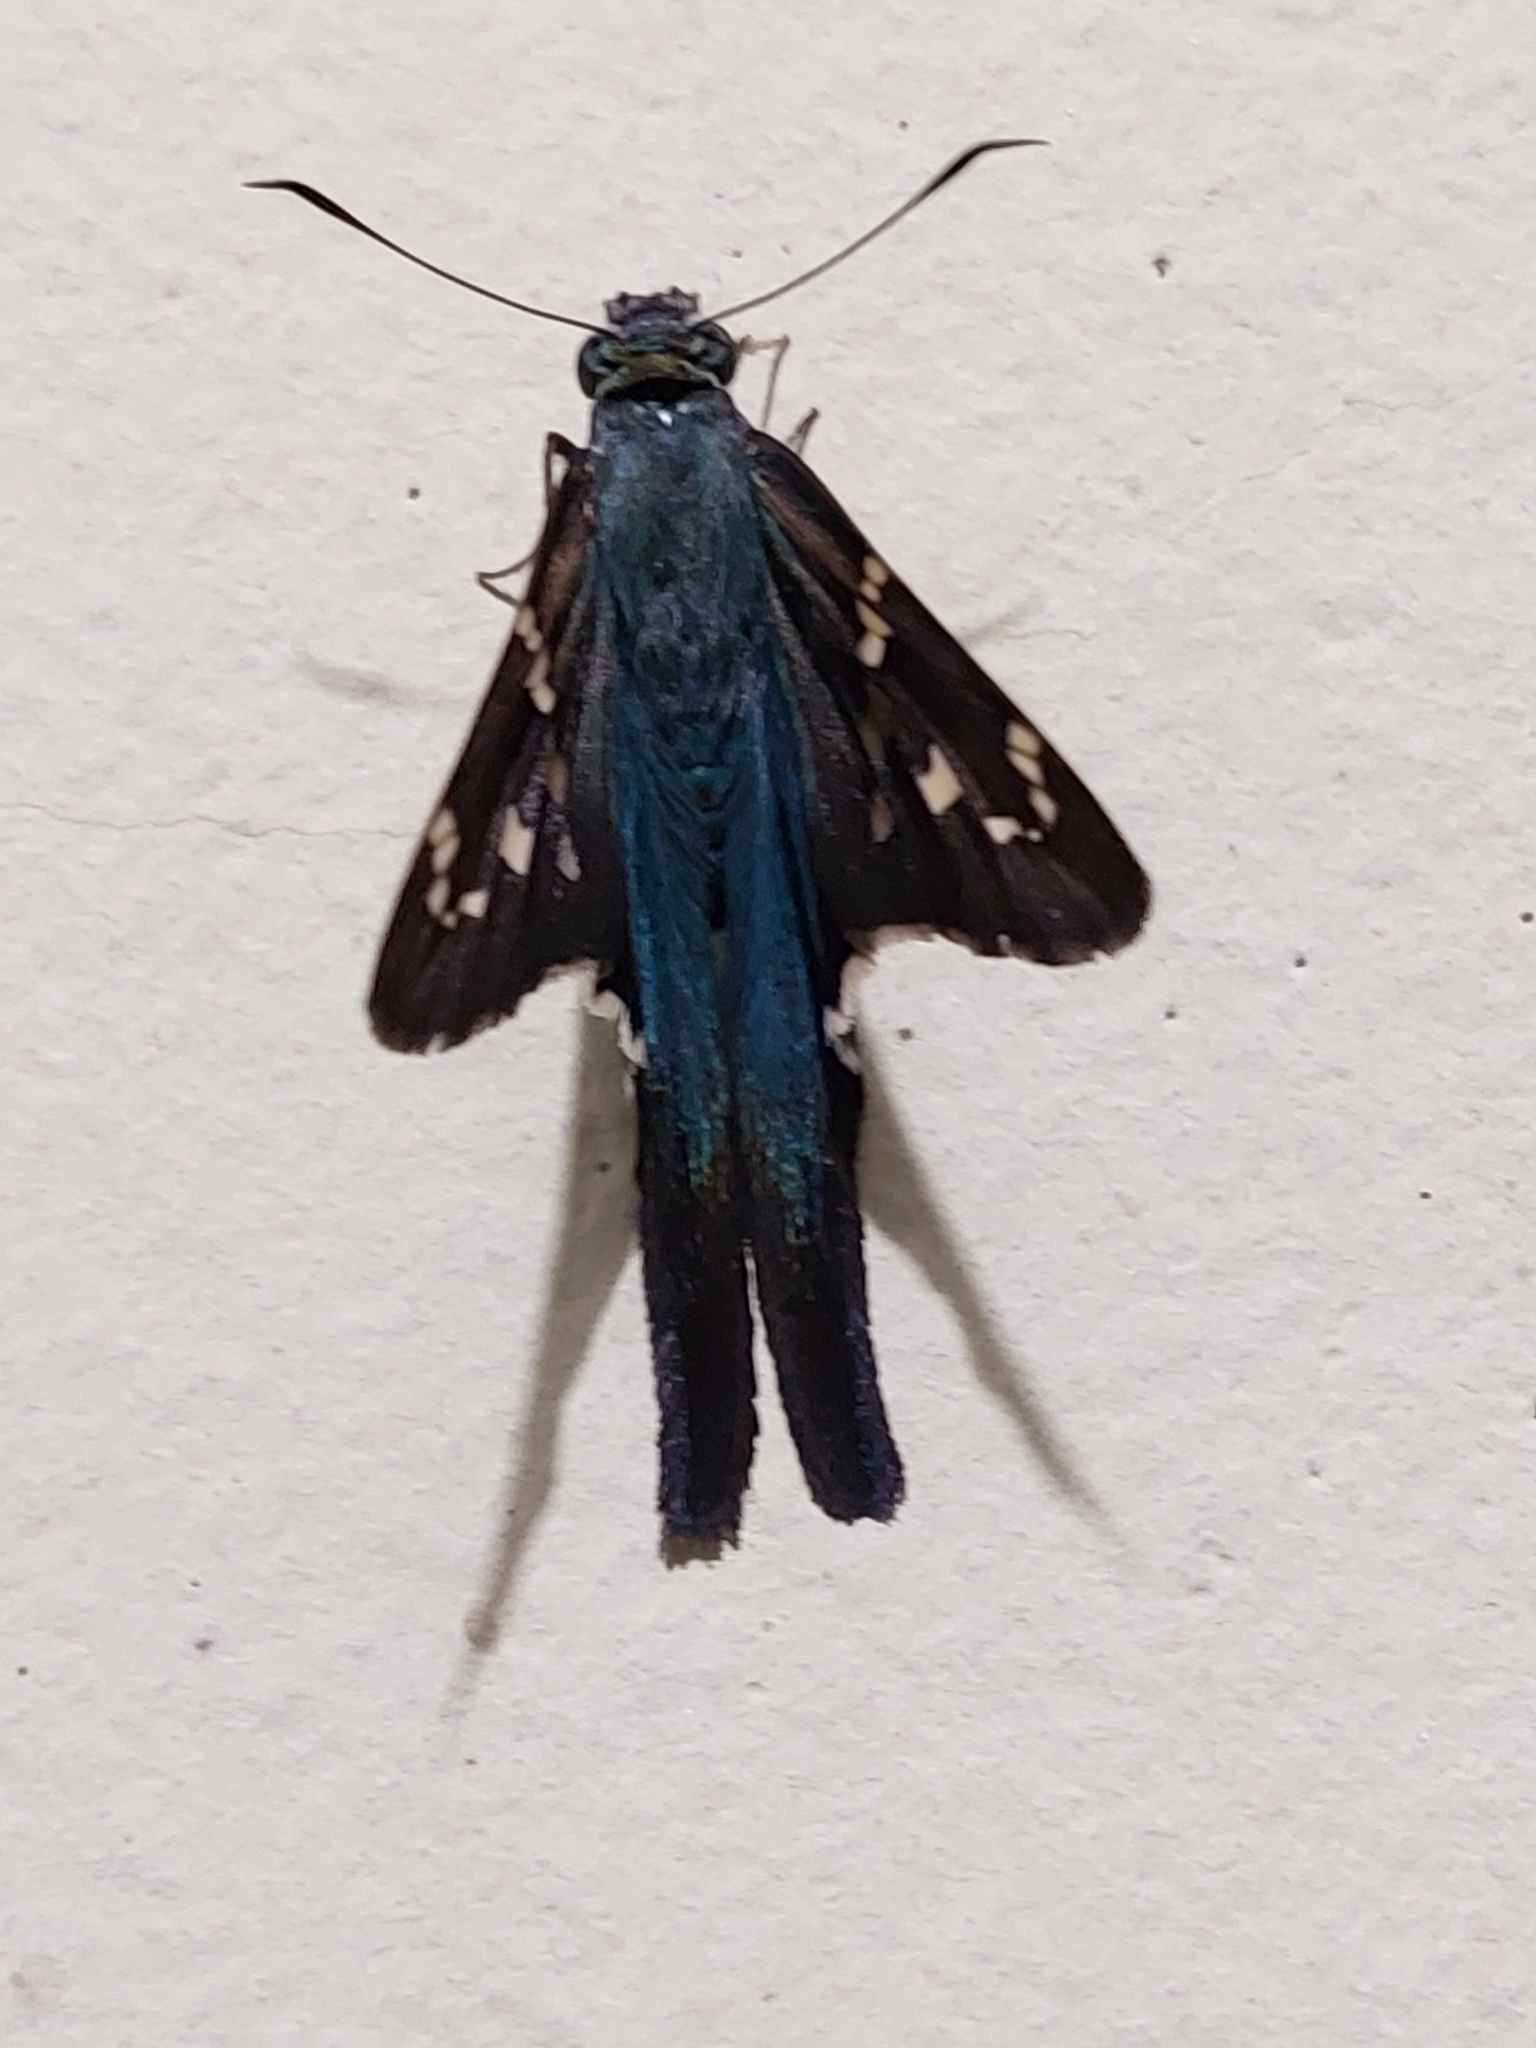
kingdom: Animalia
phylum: Arthropoda
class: Insecta
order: Lepidoptera
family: Hesperiidae
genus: Urbanus
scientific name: Urbanus proteus
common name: Long-tailed skipper
